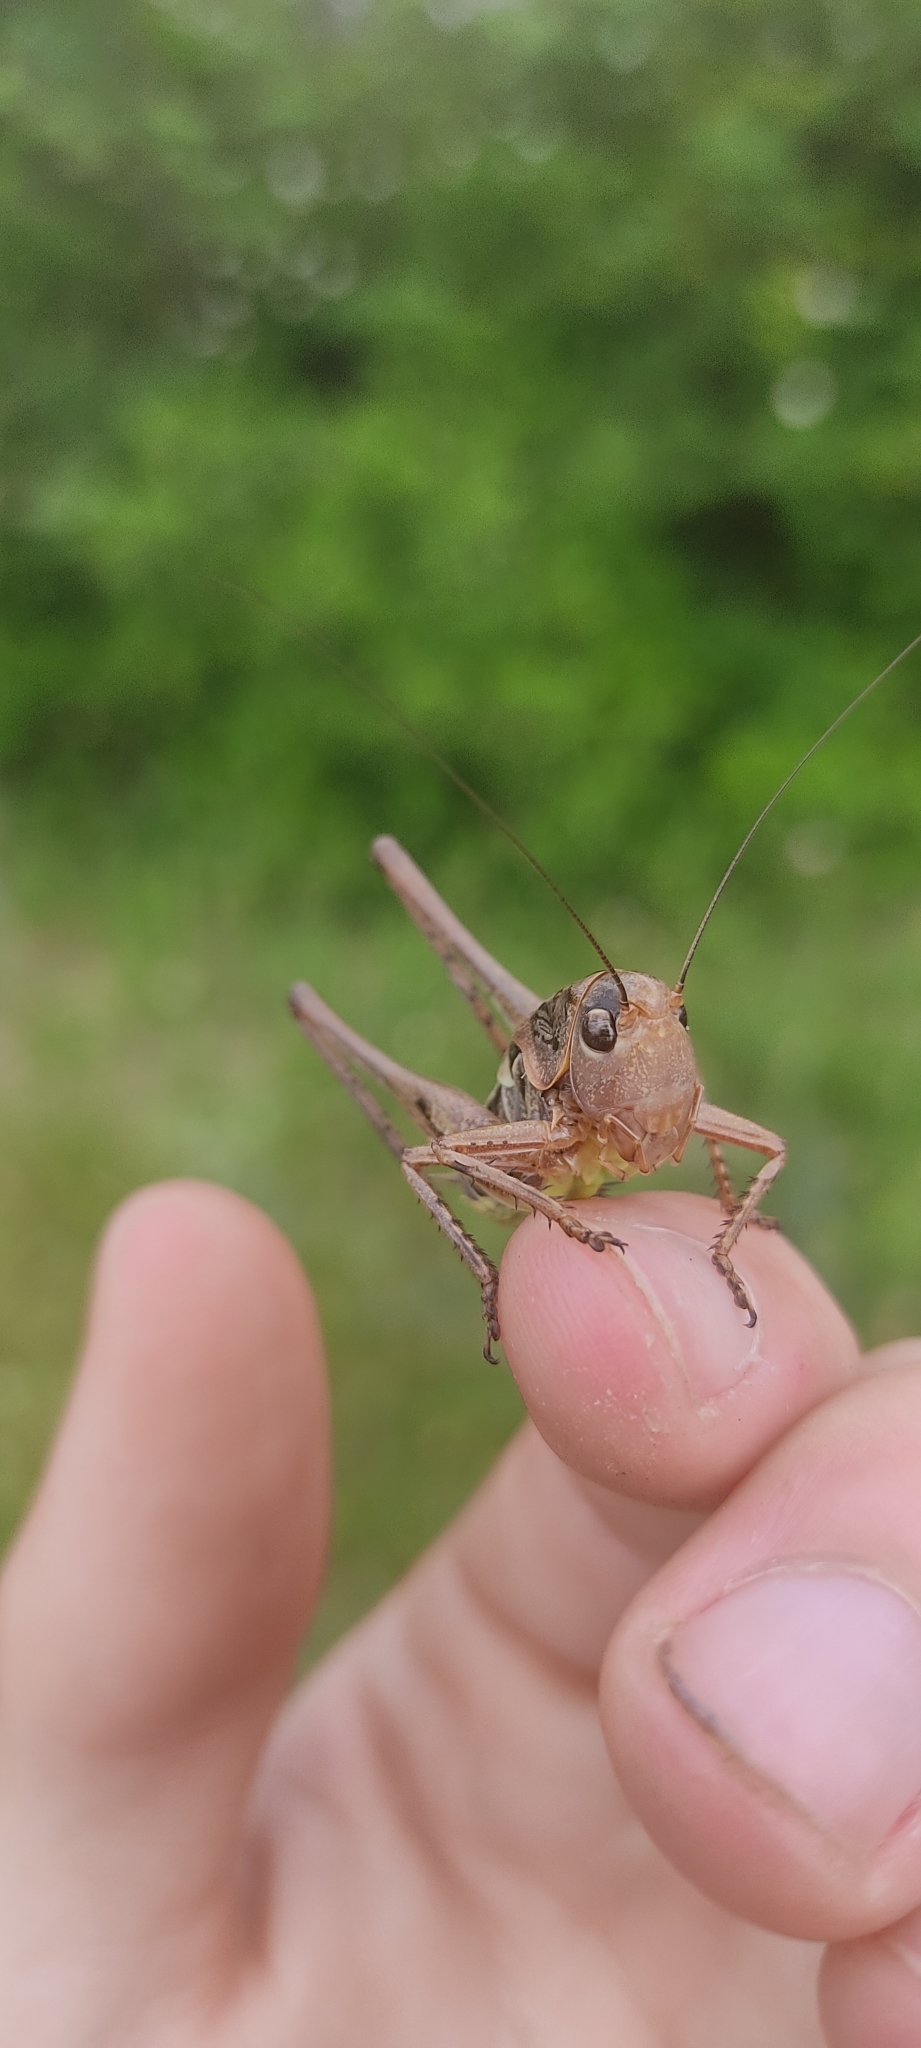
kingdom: Animalia
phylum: Arthropoda
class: Insecta
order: Orthoptera
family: Tettigoniidae
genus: Decticus
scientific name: Decticus albifrons
